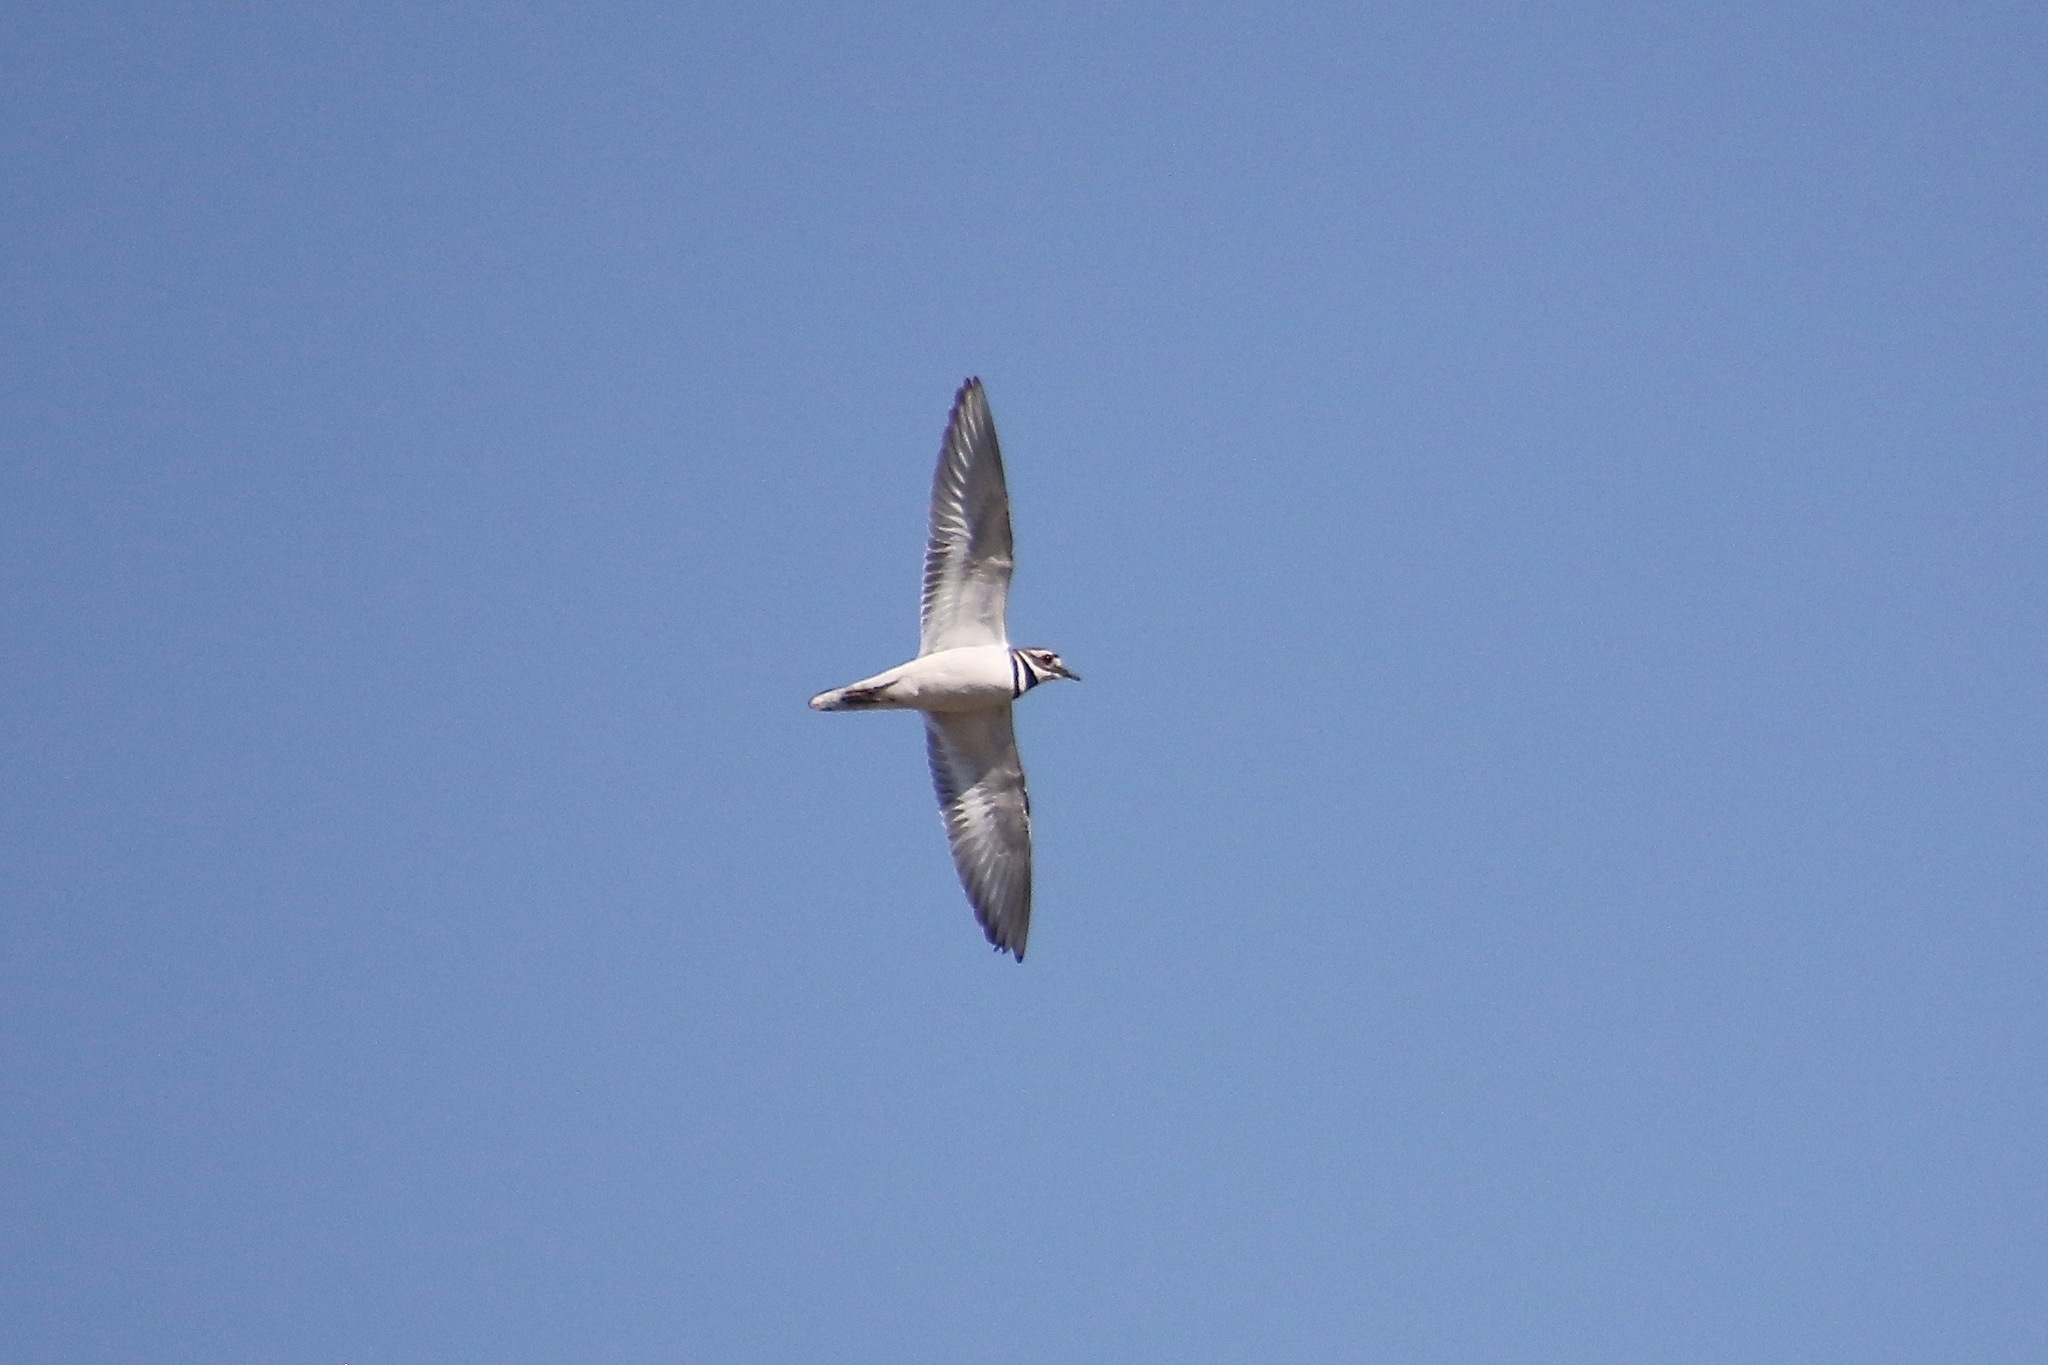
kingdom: Animalia
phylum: Chordata
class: Aves
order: Charadriiformes
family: Charadriidae
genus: Charadrius
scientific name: Charadrius vociferus
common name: Killdeer
